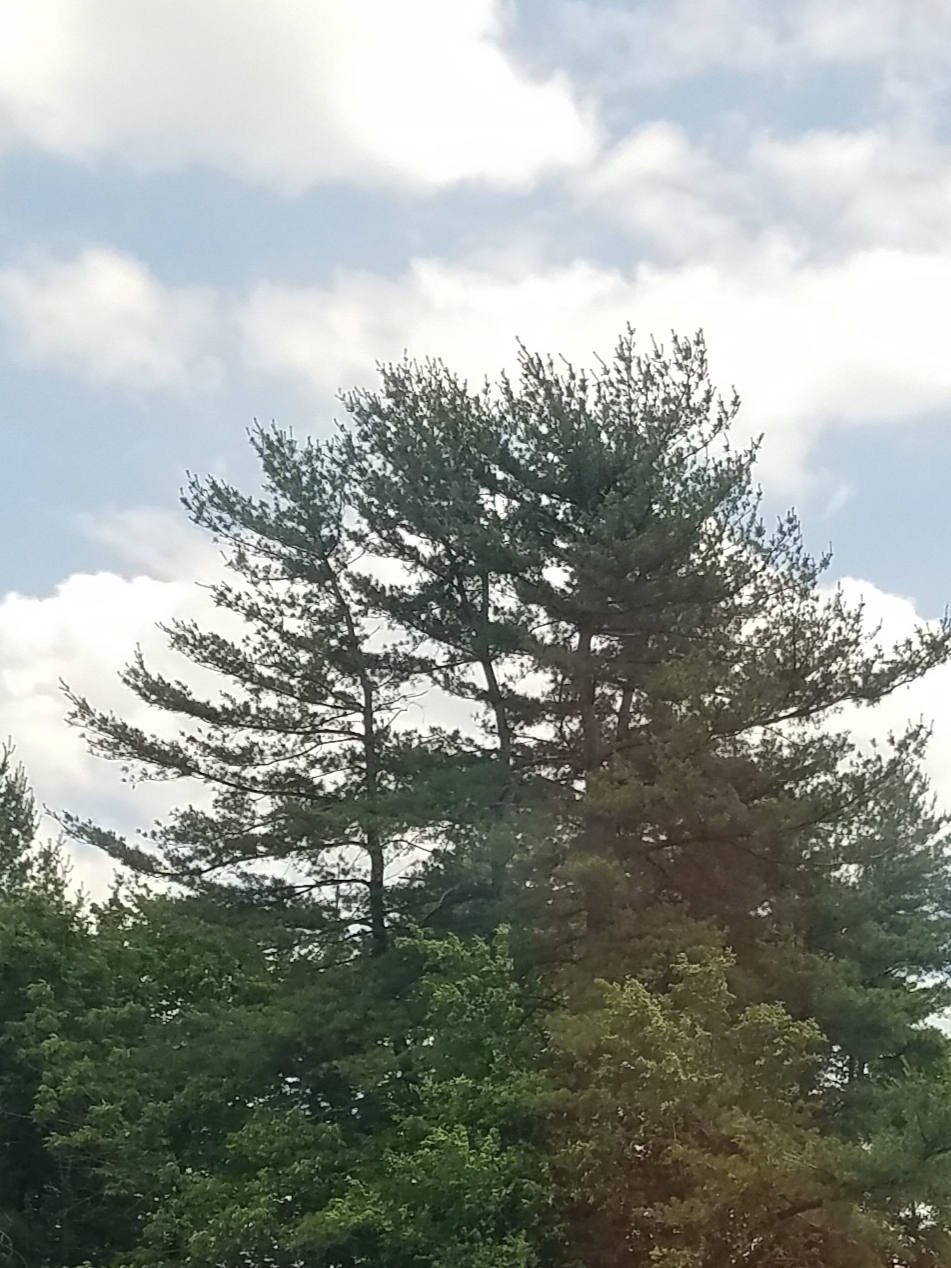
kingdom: Plantae
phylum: Tracheophyta
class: Pinopsida
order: Pinales
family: Pinaceae
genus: Pinus
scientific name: Pinus strobus
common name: Weymouth pine
